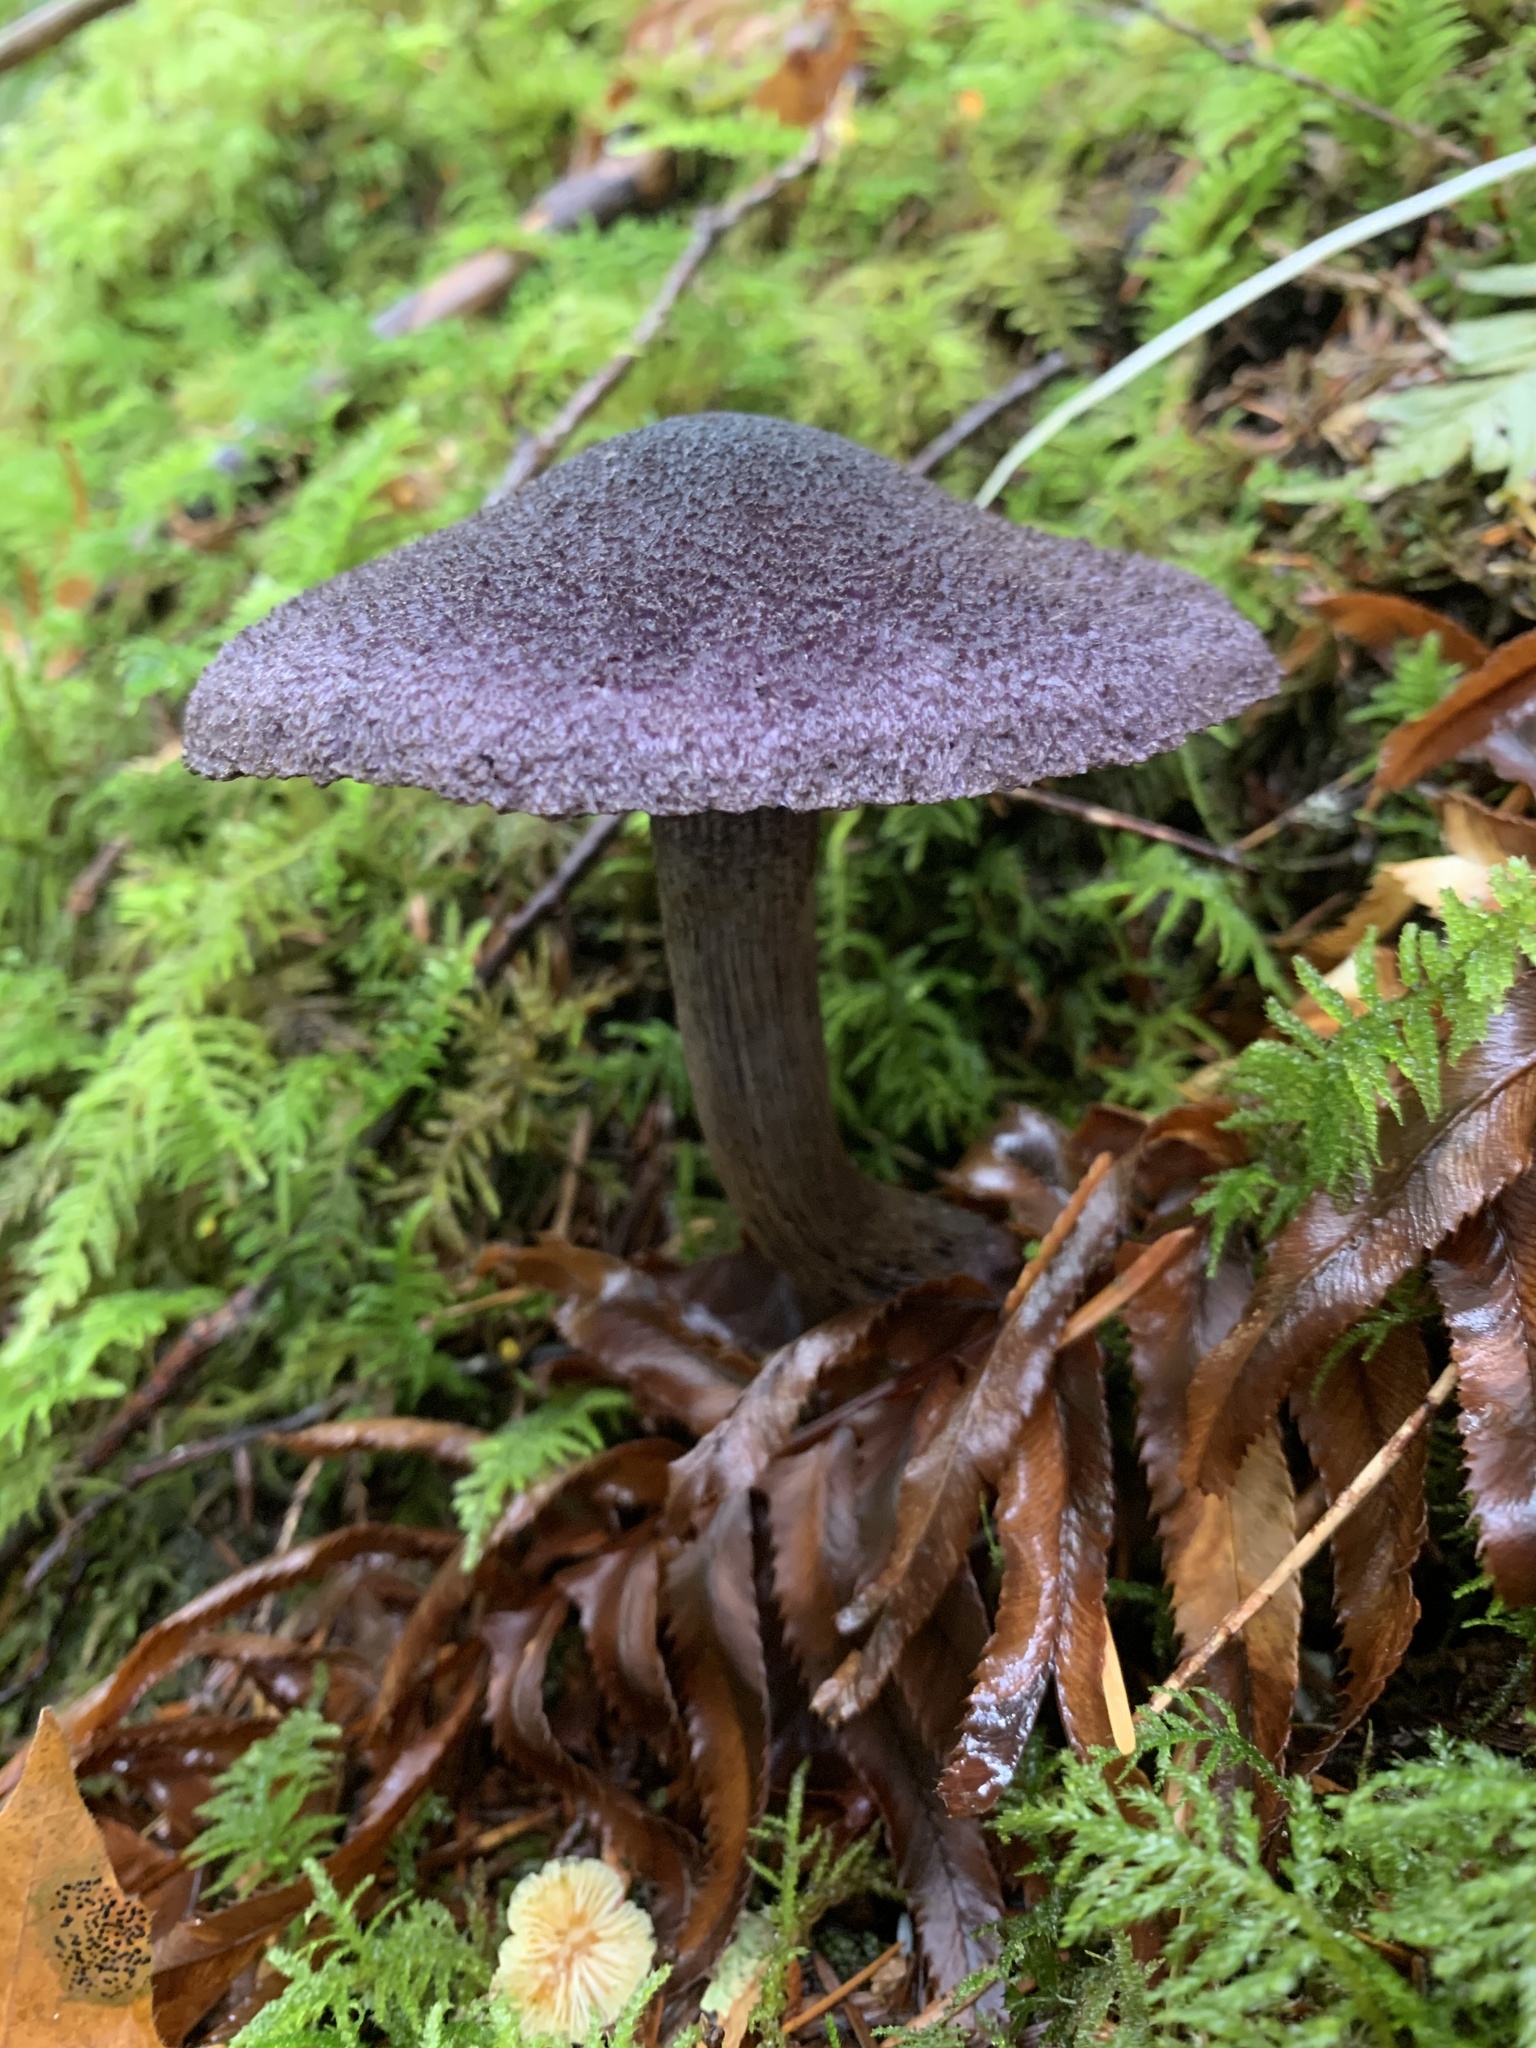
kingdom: Fungi
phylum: Basidiomycota
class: Agaricomycetes
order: Agaricales
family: Cortinariaceae
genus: Cortinarius
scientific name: Cortinarius violaceus
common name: Violet webcap
